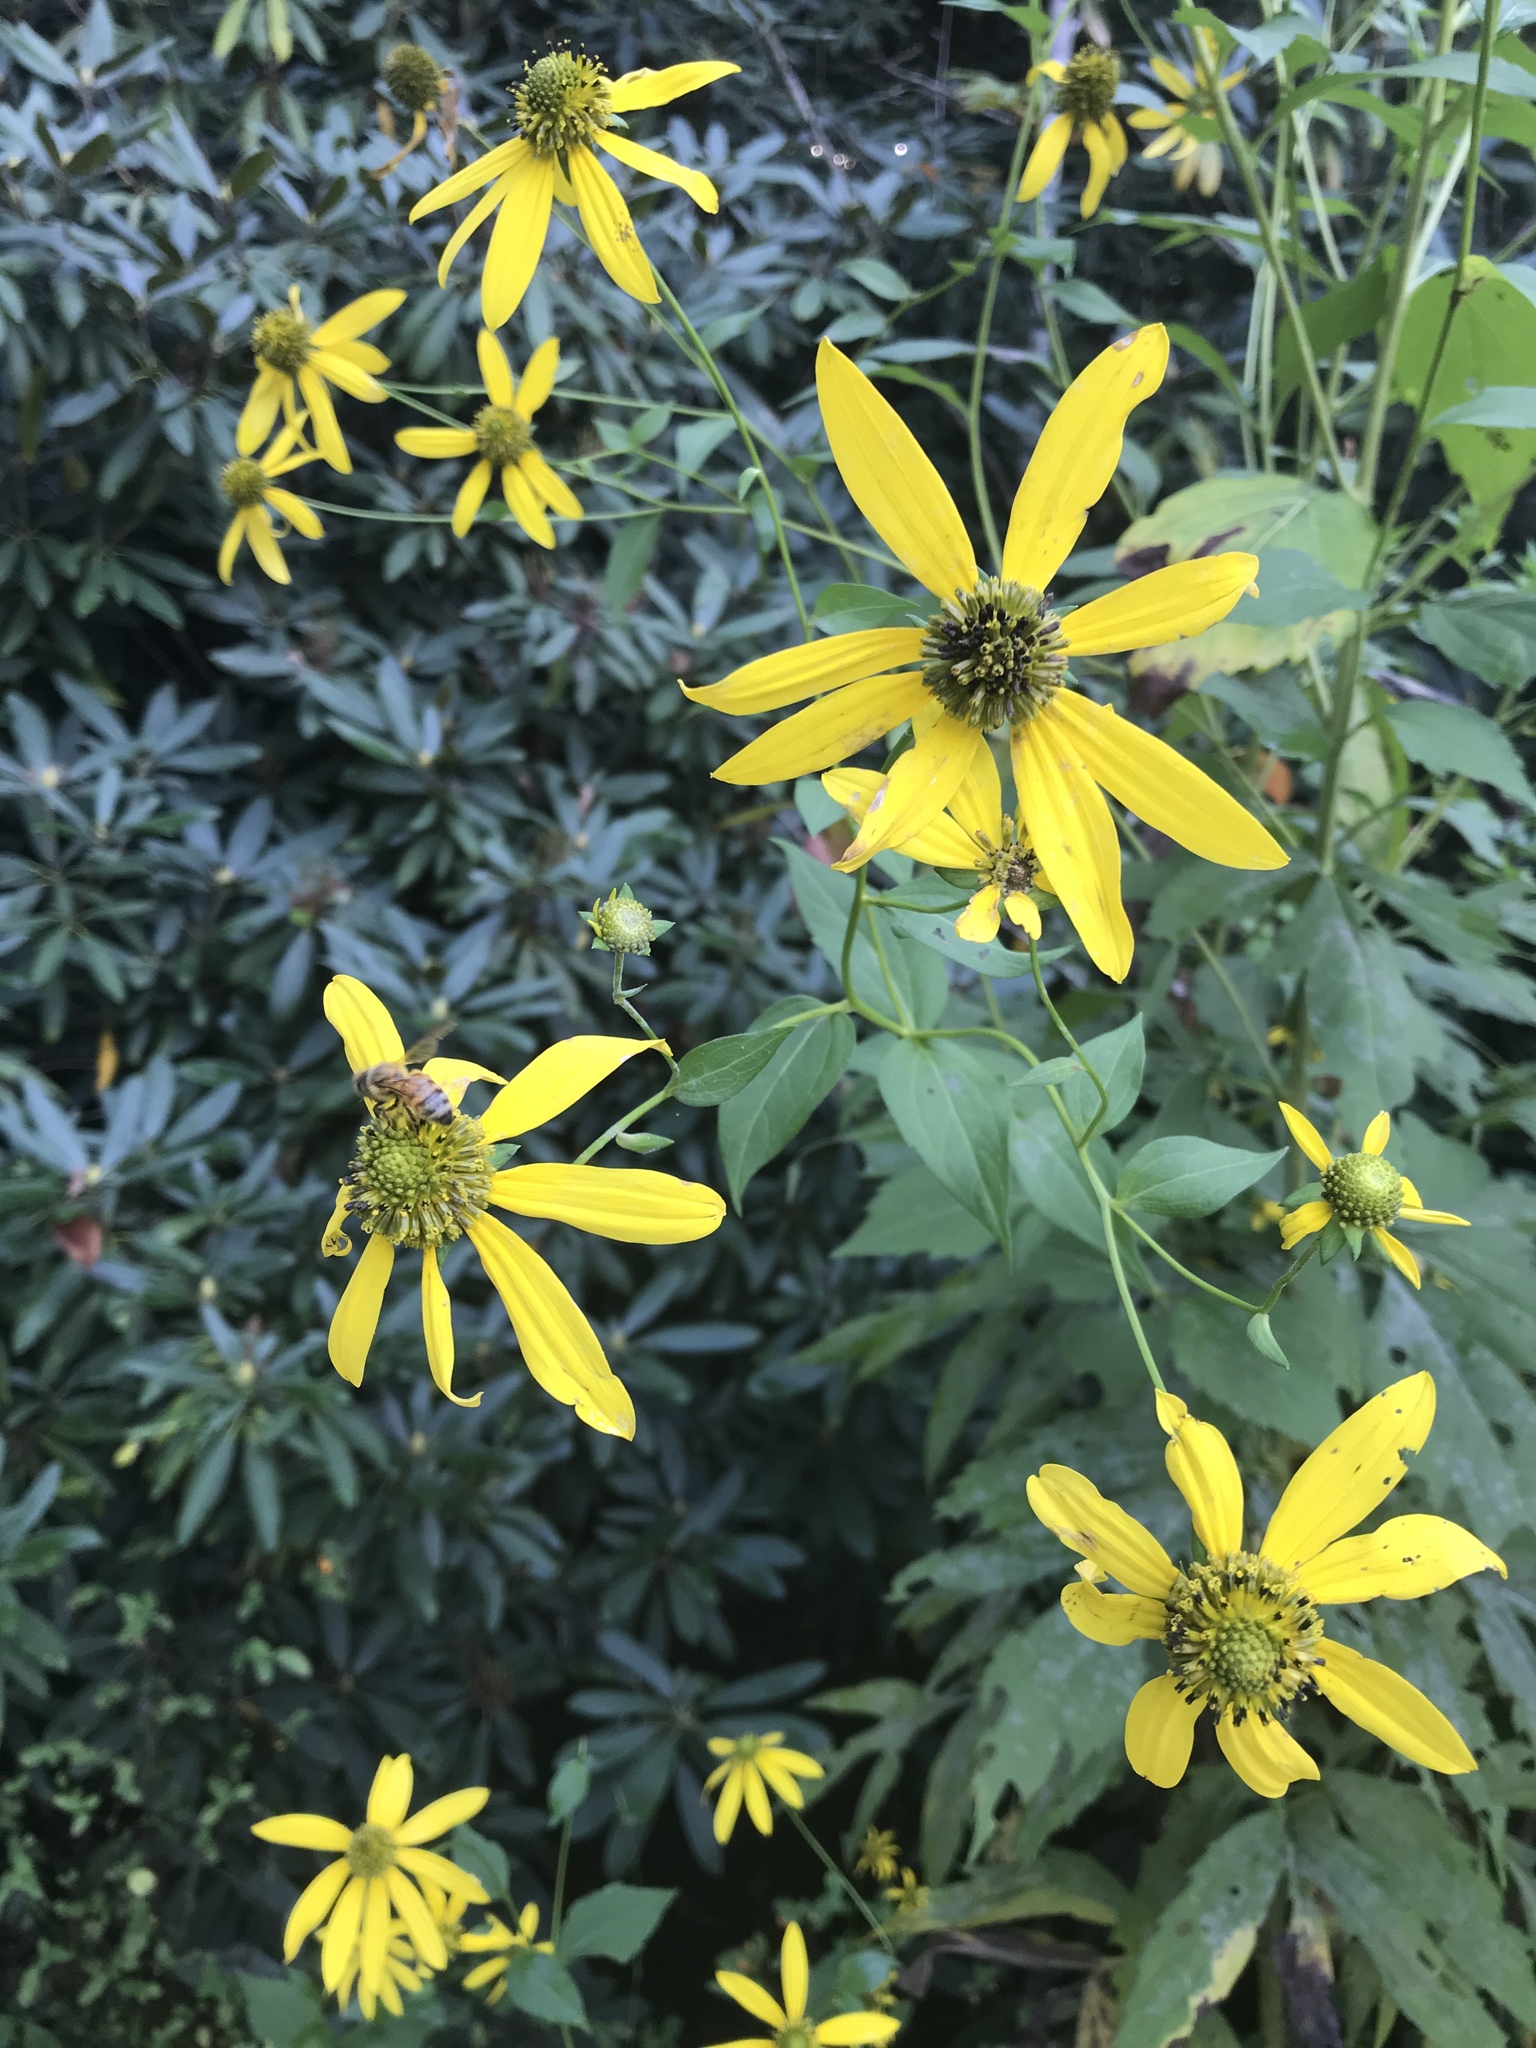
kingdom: Plantae
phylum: Tracheophyta
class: Magnoliopsida
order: Asterales
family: Asteraceae
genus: Rudbeckia
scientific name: Rudbeckia laciniata
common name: Coneflower
